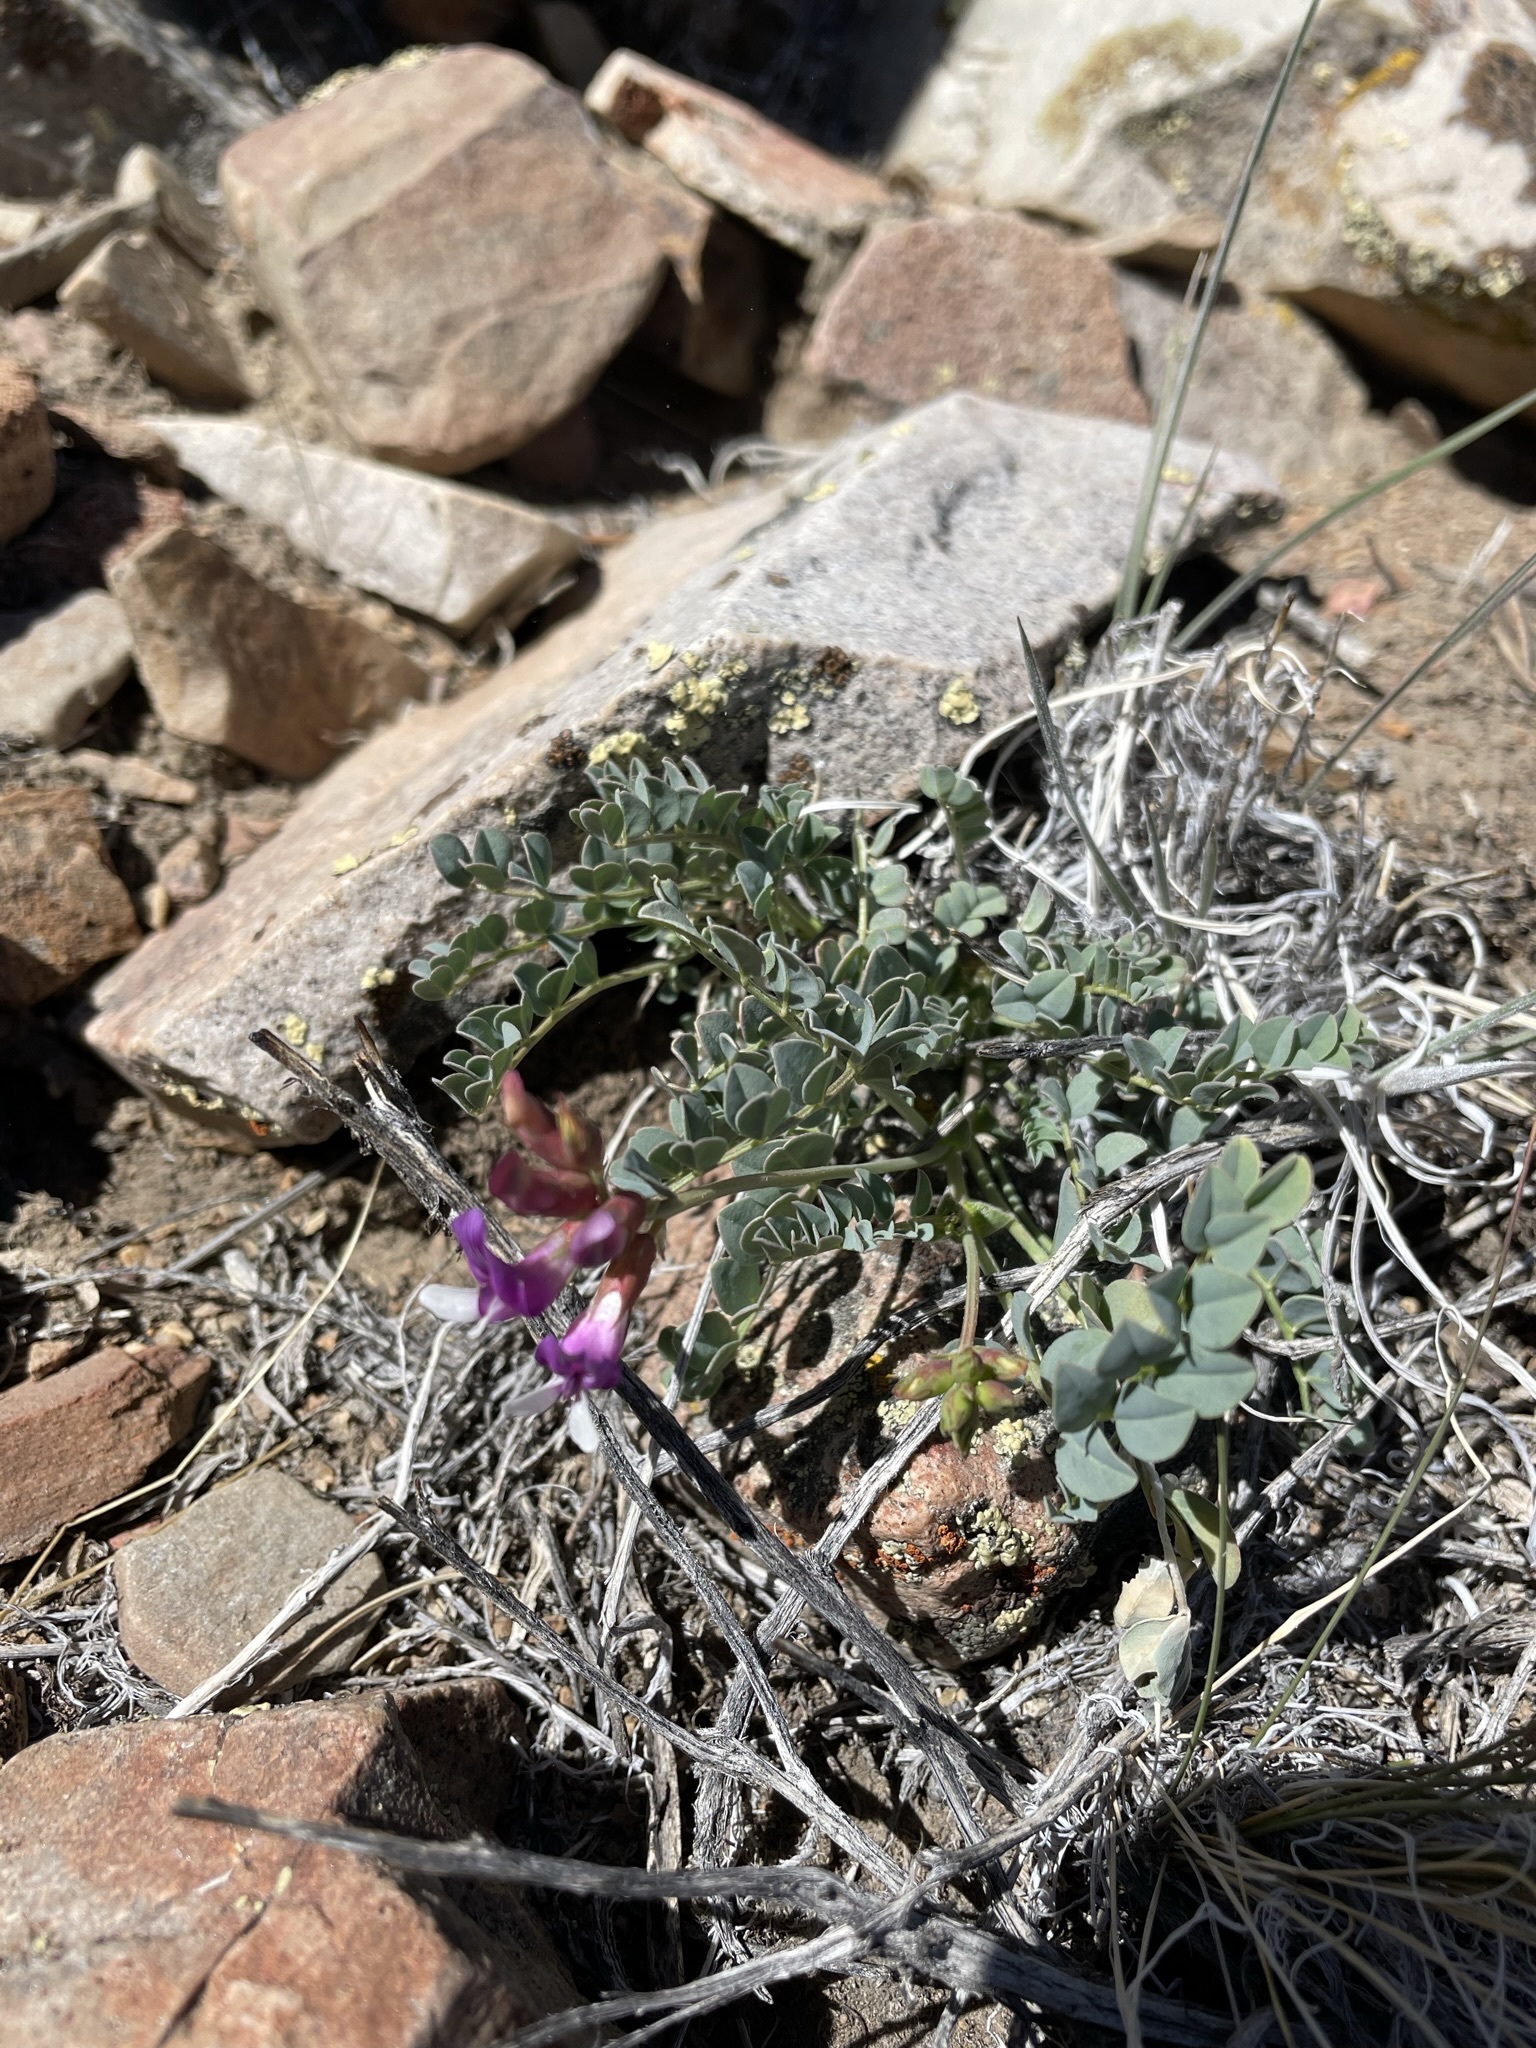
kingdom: Plantae
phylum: Tracheophyta
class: Magnoliopsida
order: Fabales
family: Fabaceae
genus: Astragalus
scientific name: Astragalus oophorus
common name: Egg milkvetch
